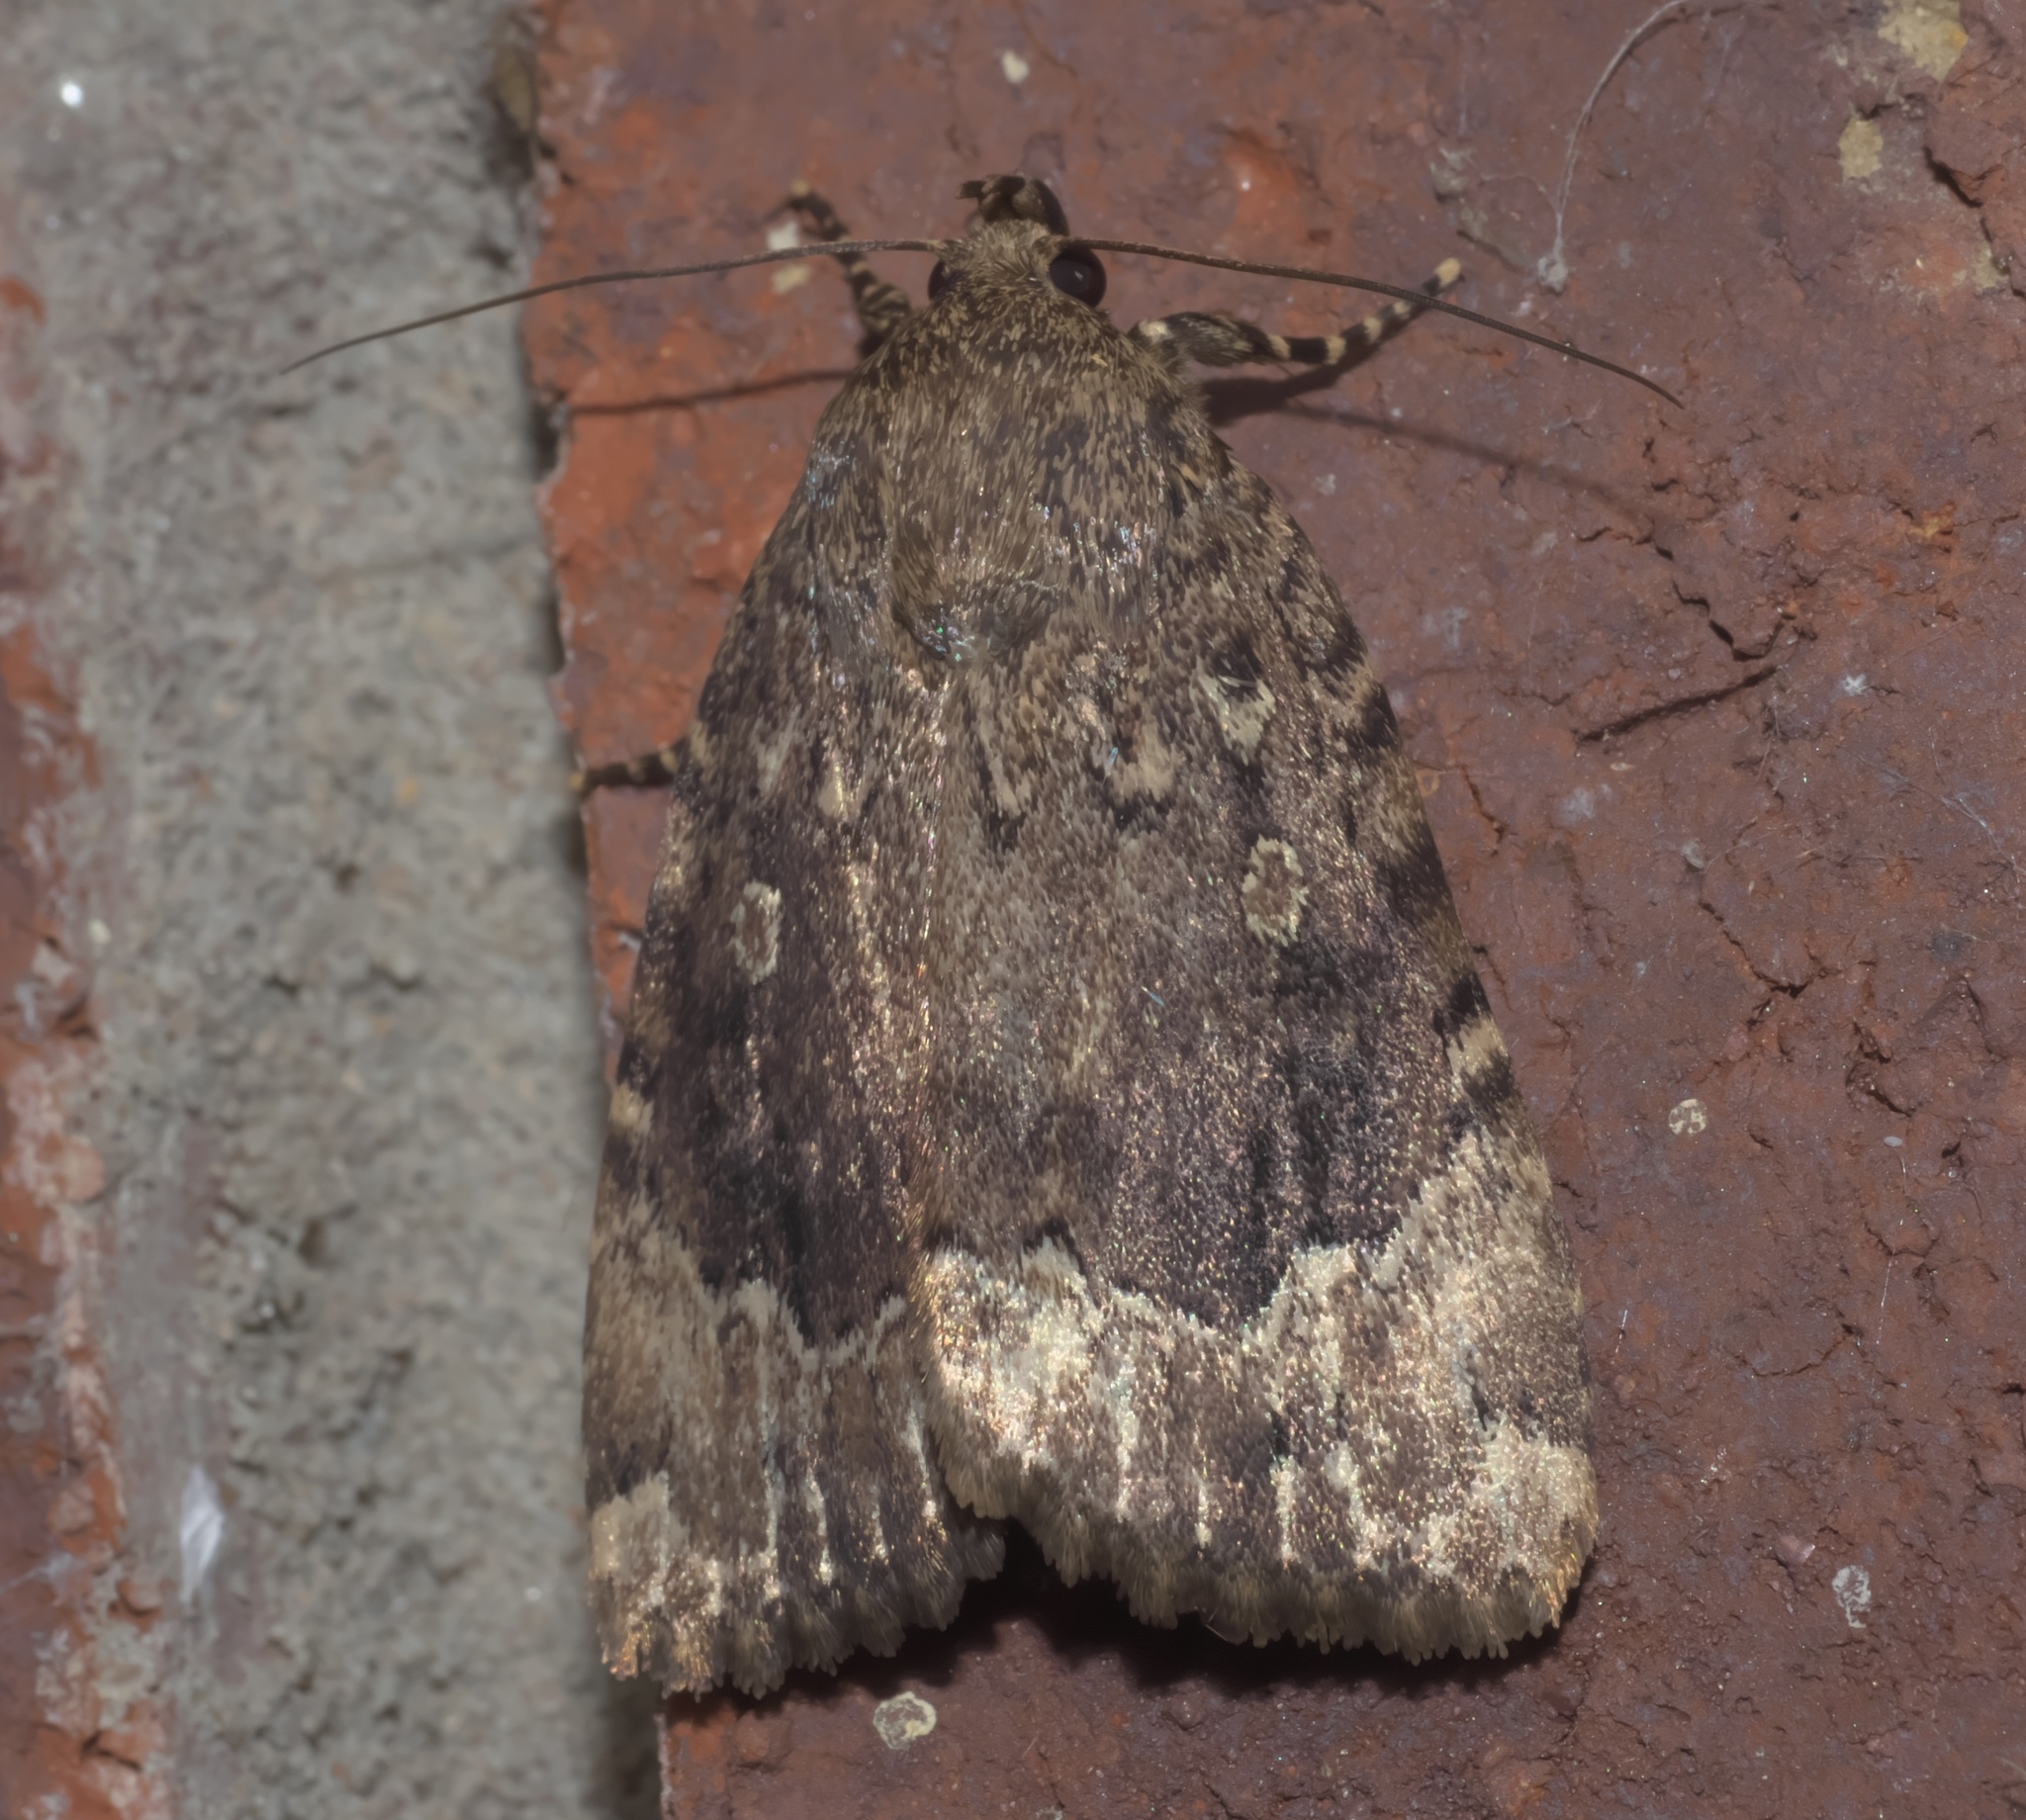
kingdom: Animalia
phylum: Arthropoda
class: Insecta
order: Lepidoptera
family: Noctuidae
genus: Amphipyra
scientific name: Amphipyra pyramidoides
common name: American copper underwing
